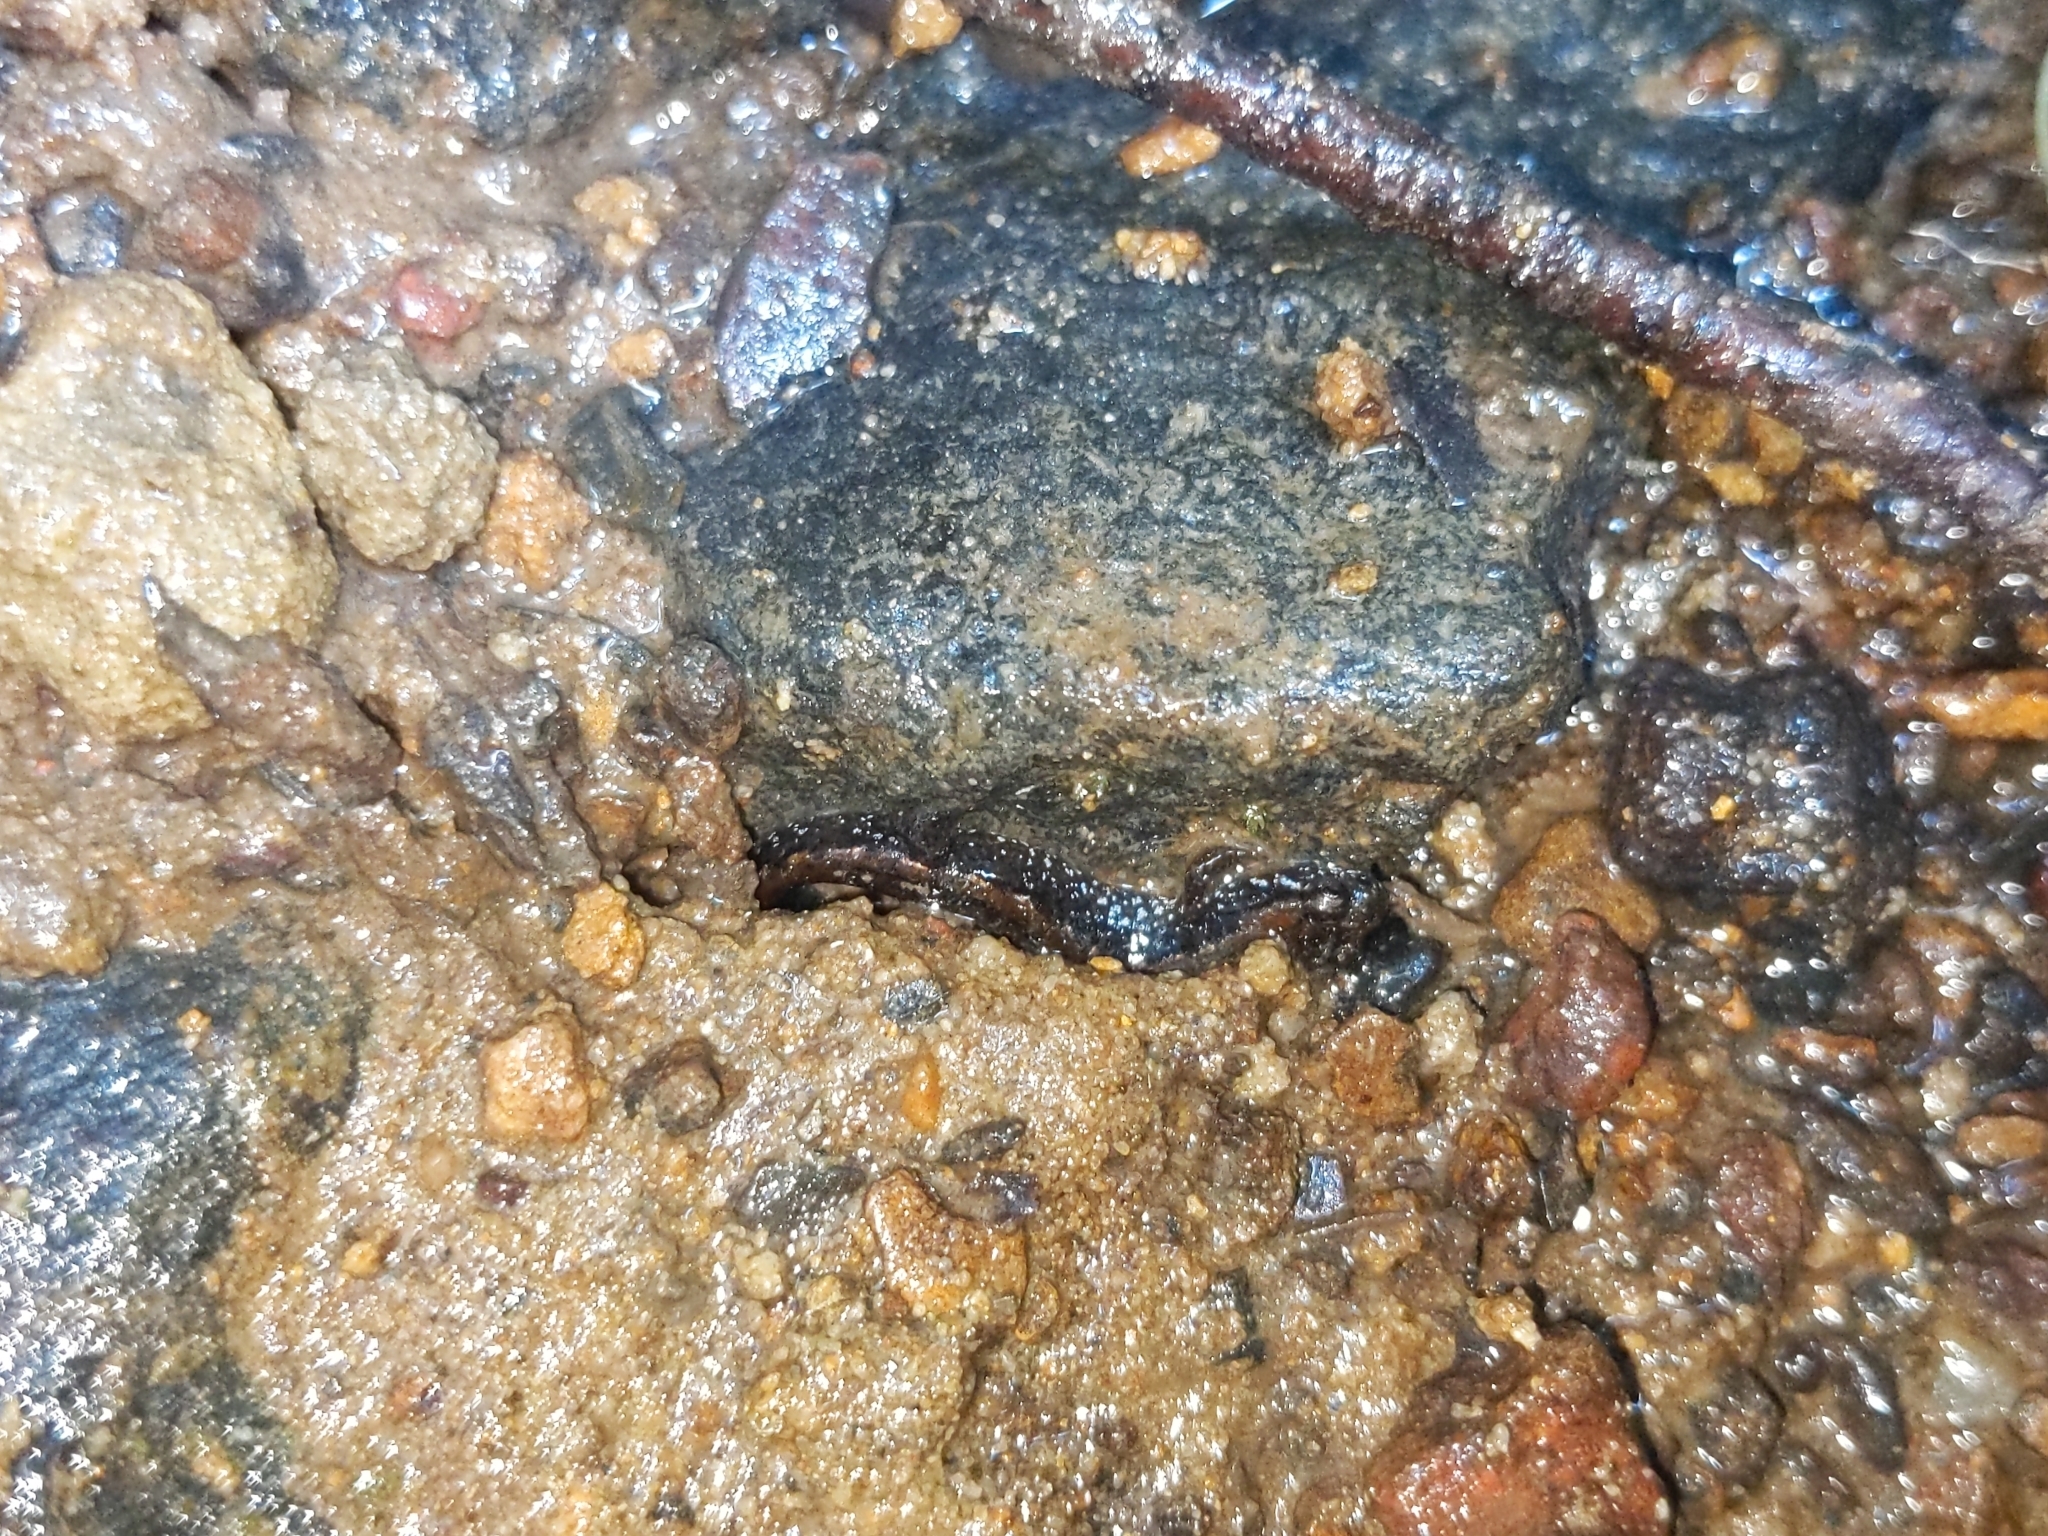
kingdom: Animalia
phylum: Chordata
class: Amphibia
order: Caudata
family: Plethodontidae
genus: Desmognathus
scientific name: Desmognathus ochrophaeus
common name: Allegheny mountain dusky salamander
